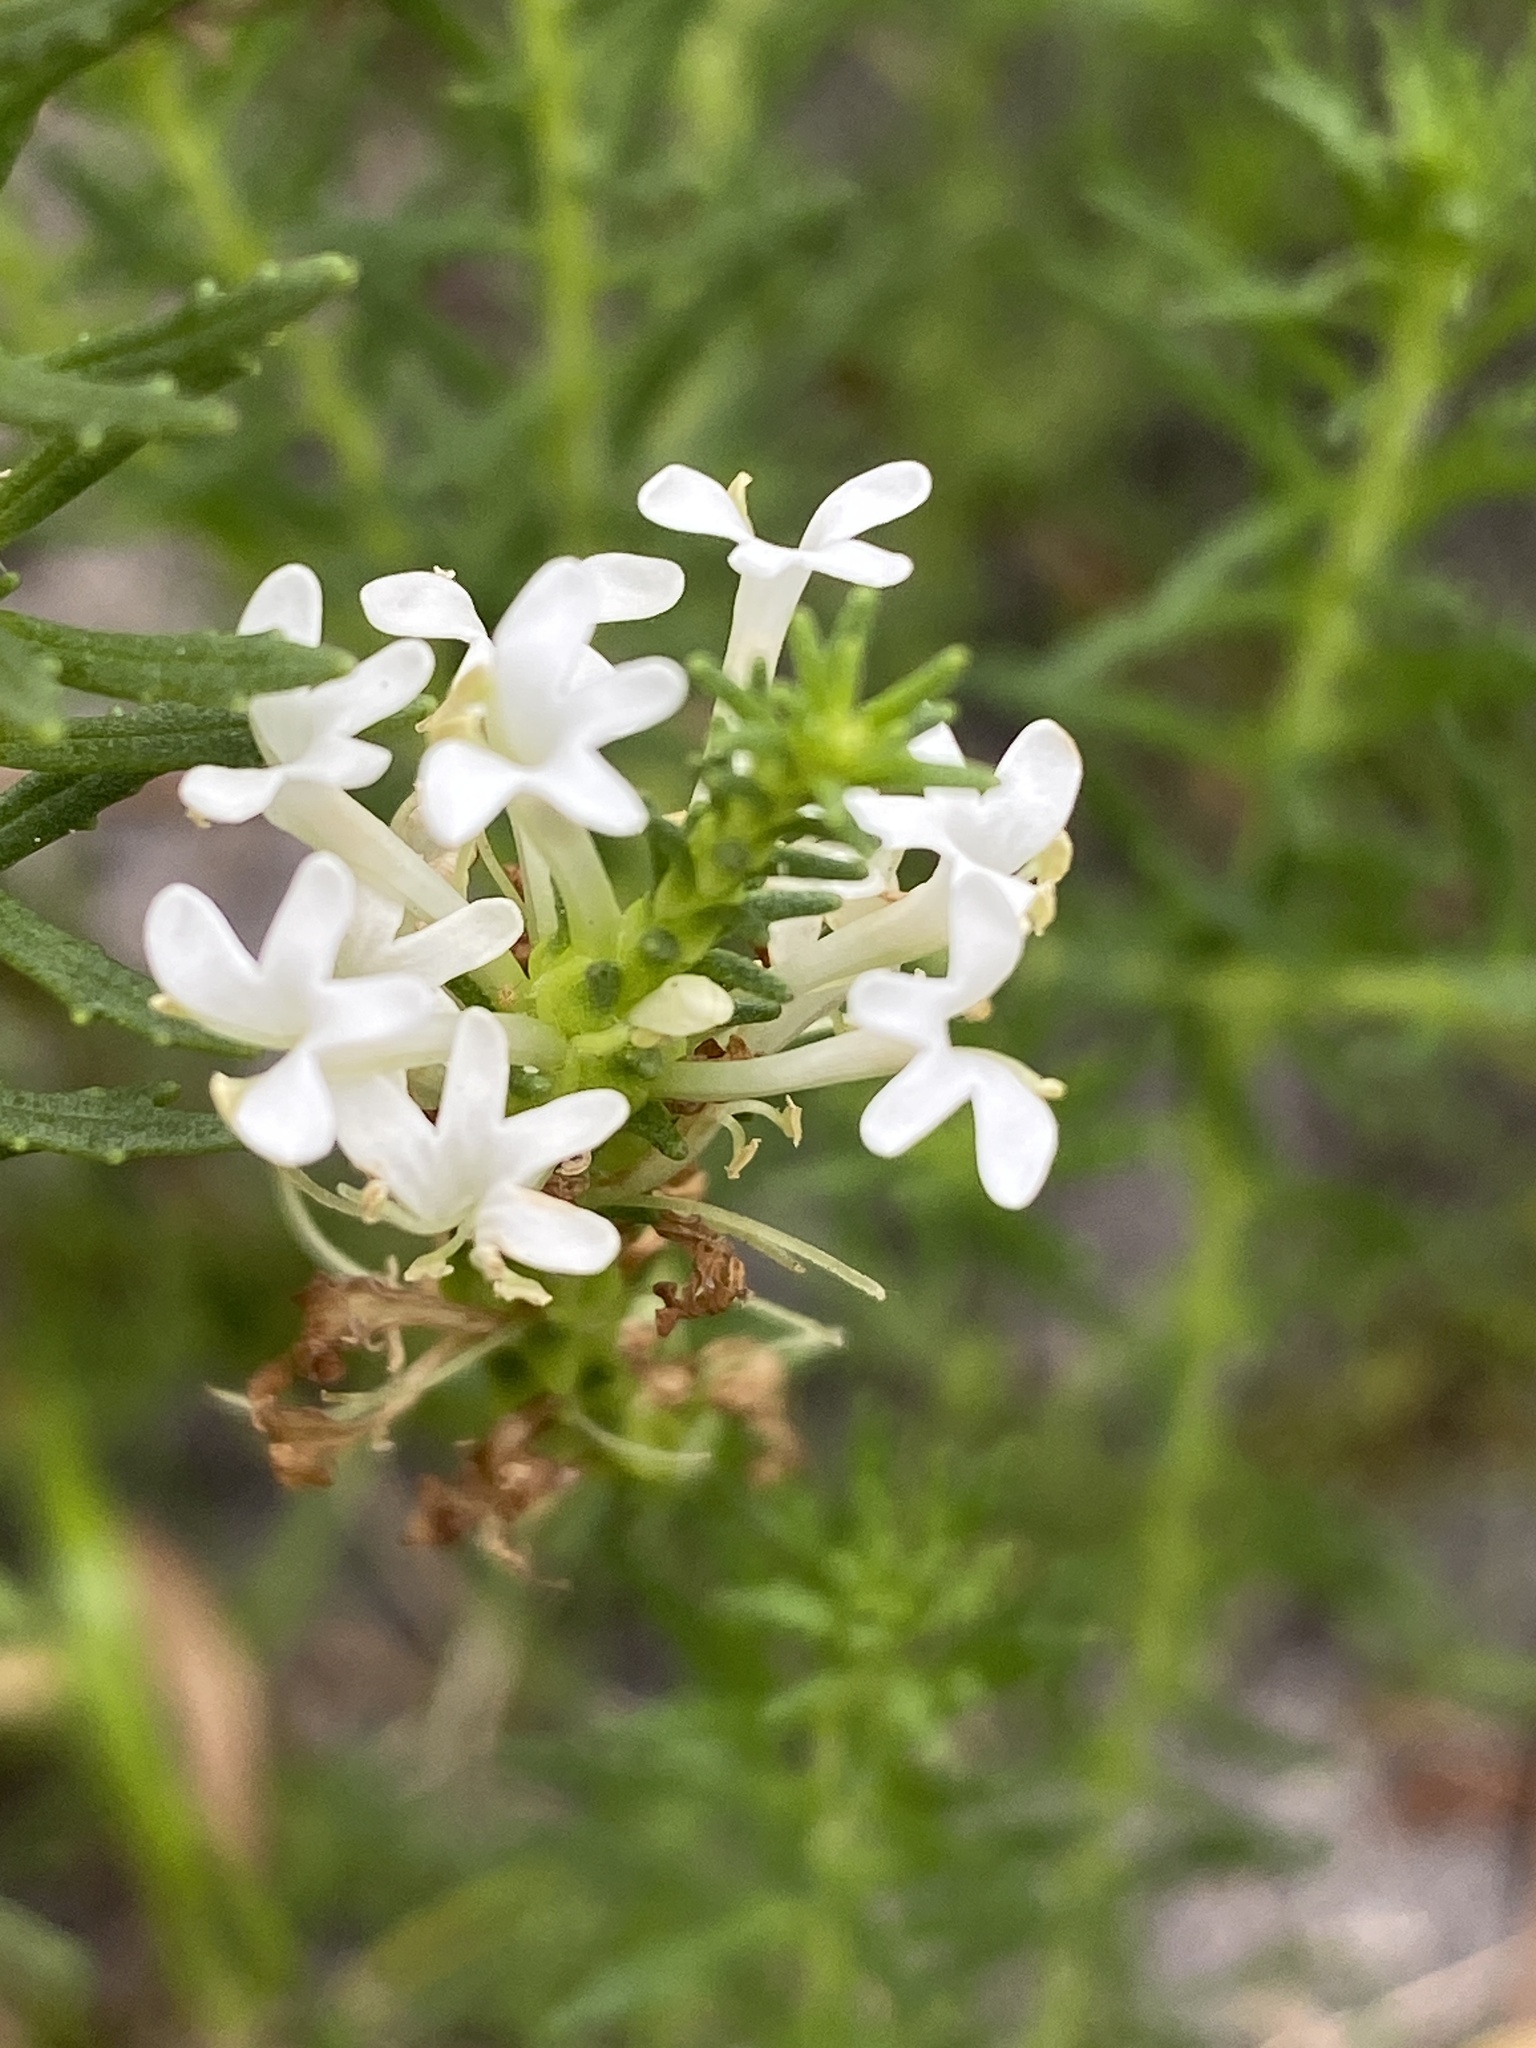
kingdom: Plantae
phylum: Tracheophyta
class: Magnoliopsida
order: Lamiales
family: Scrophulariaceae
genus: Dischisma
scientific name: Dischisma ciliatum
